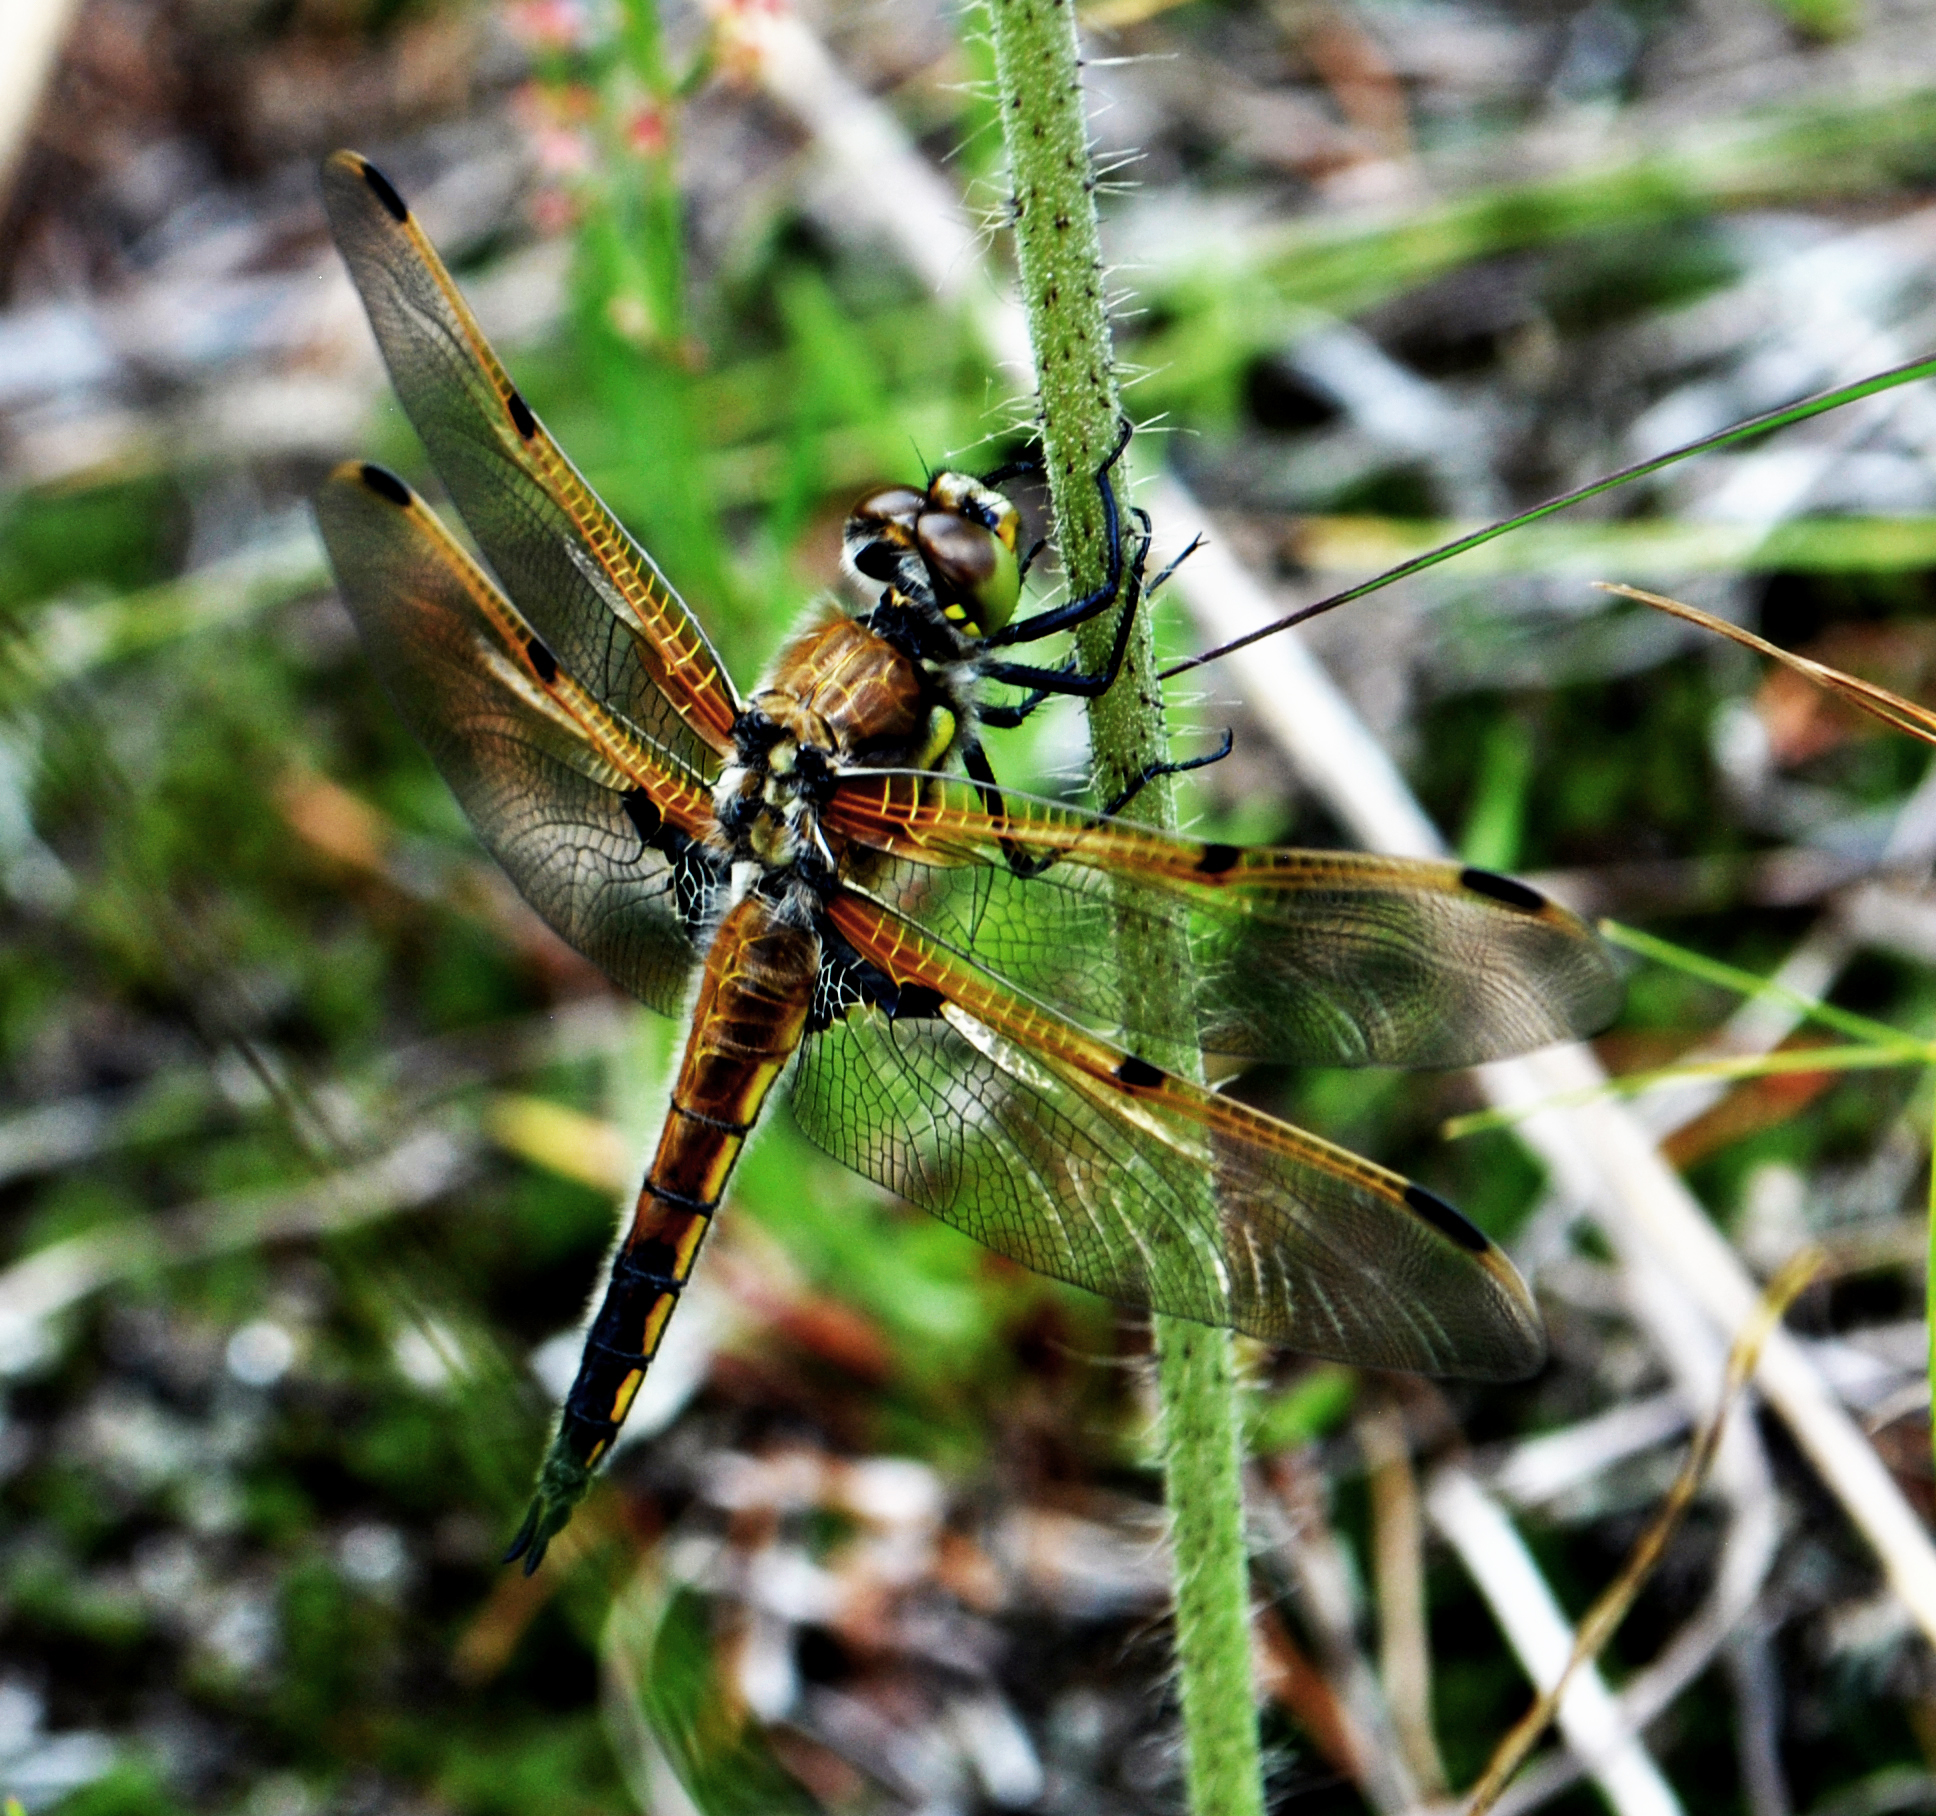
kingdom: Animalia
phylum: Arthropoda
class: Insecta
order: Odonata
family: Libellulidae
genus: Libellula
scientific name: Libellula quadrimaculata
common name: Four-spotted chaser
